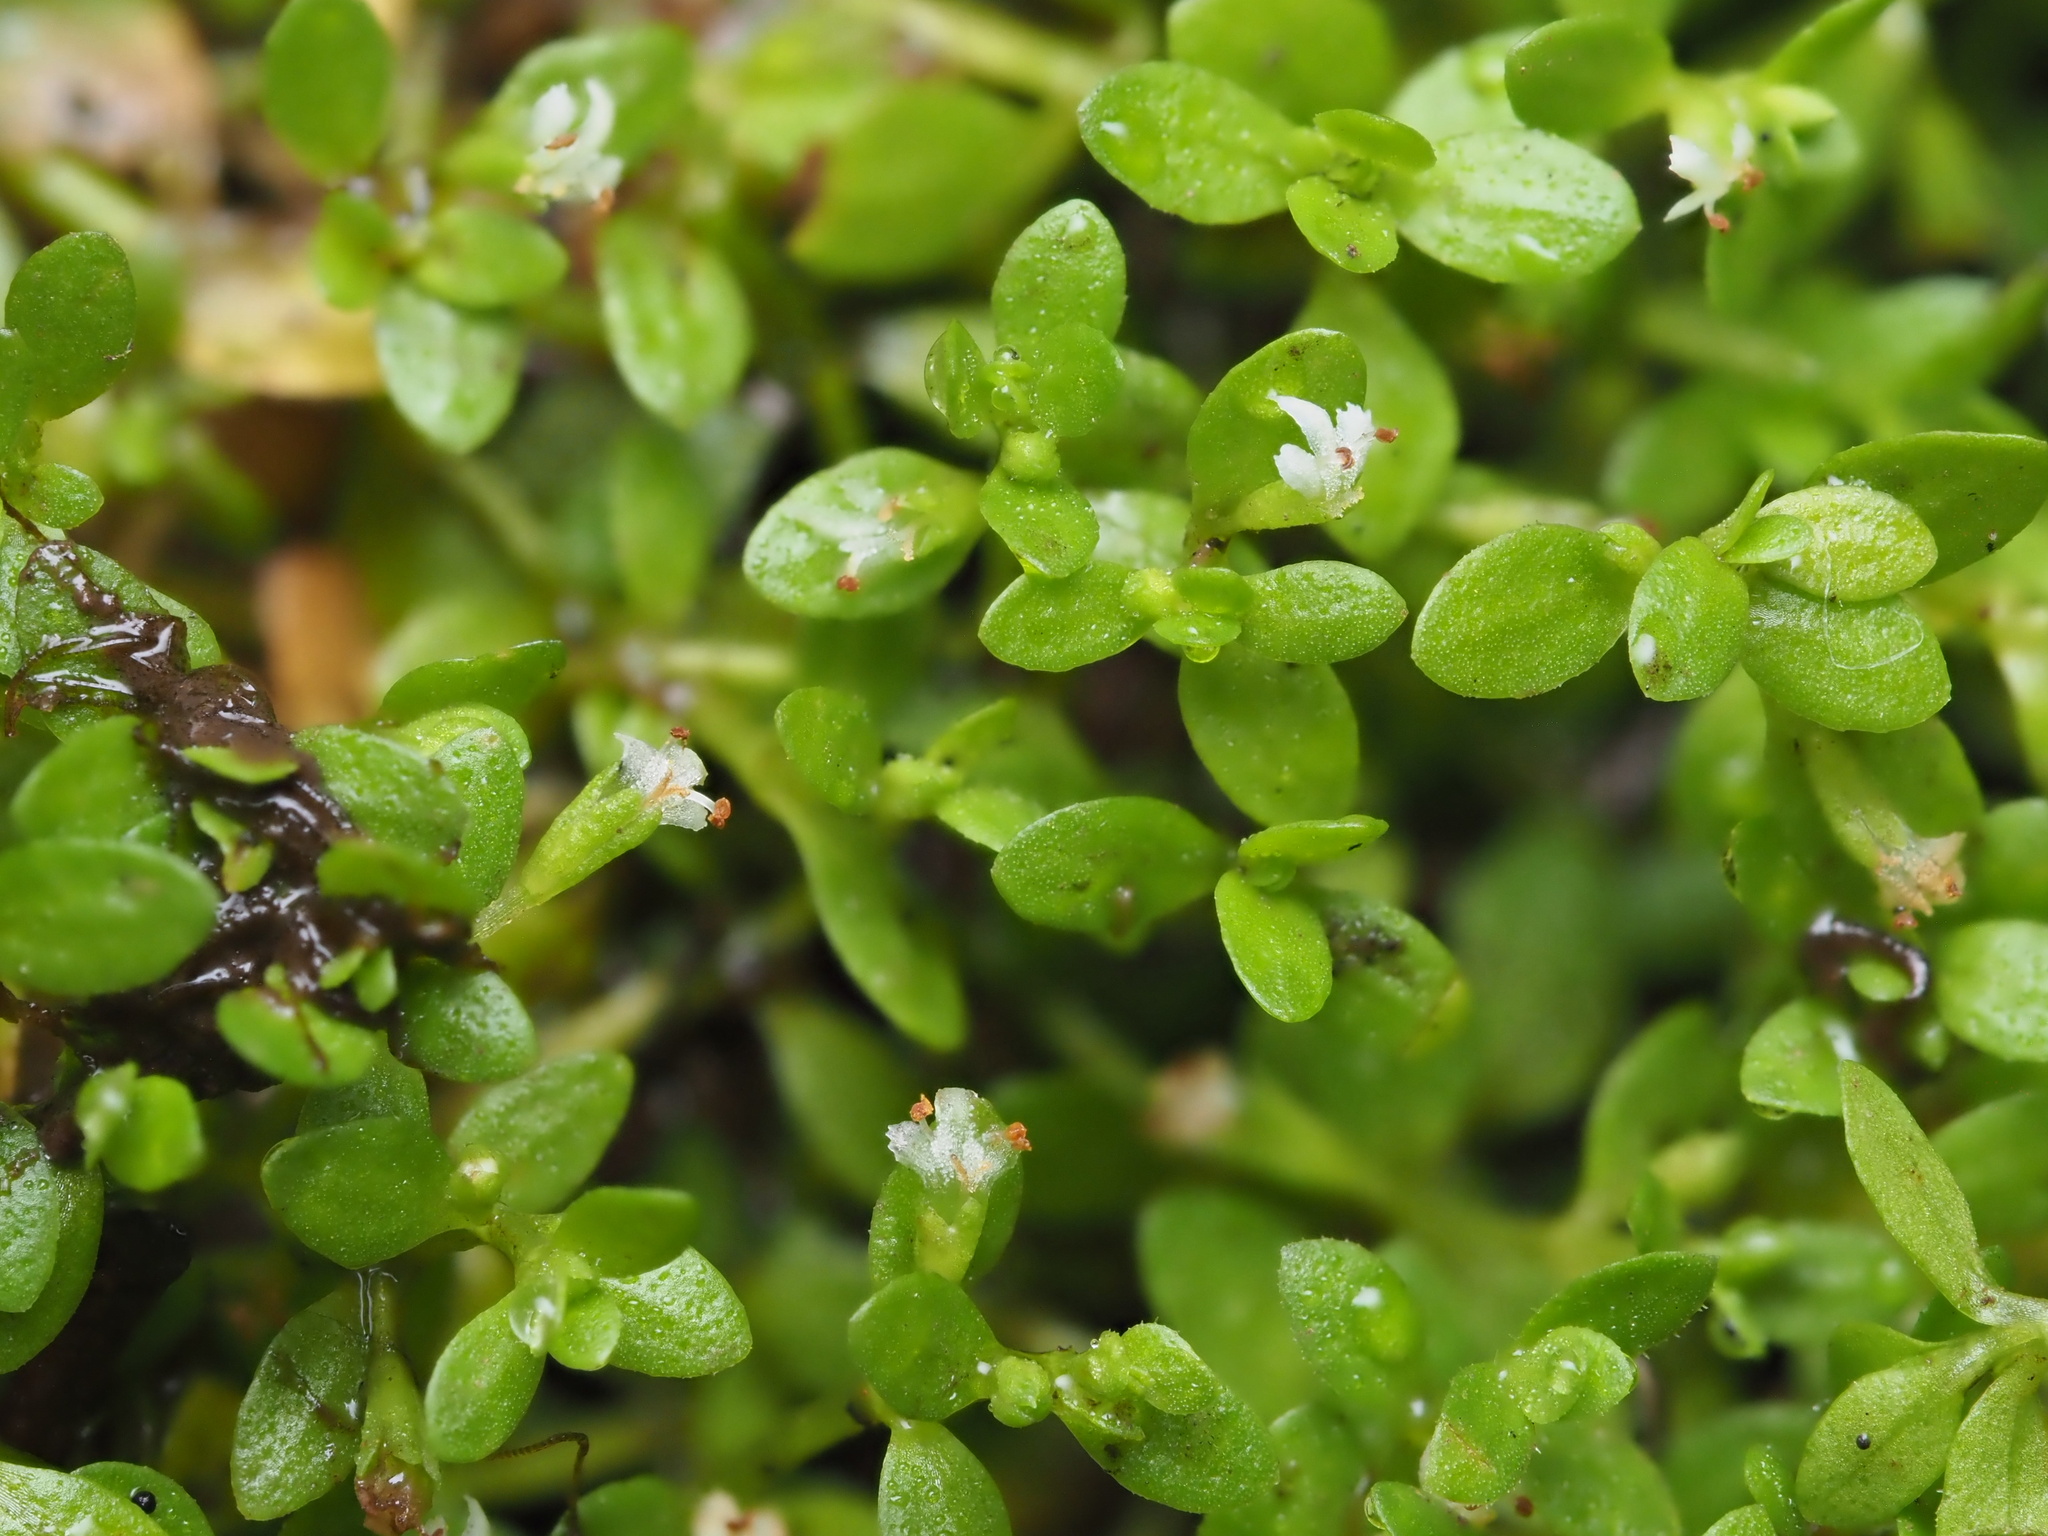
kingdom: Plantae
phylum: Tracheophyta
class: Magnoliopsida
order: Lamiales
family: Linderniaceae
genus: Micranthemum
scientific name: Micranthemum glomeratum
